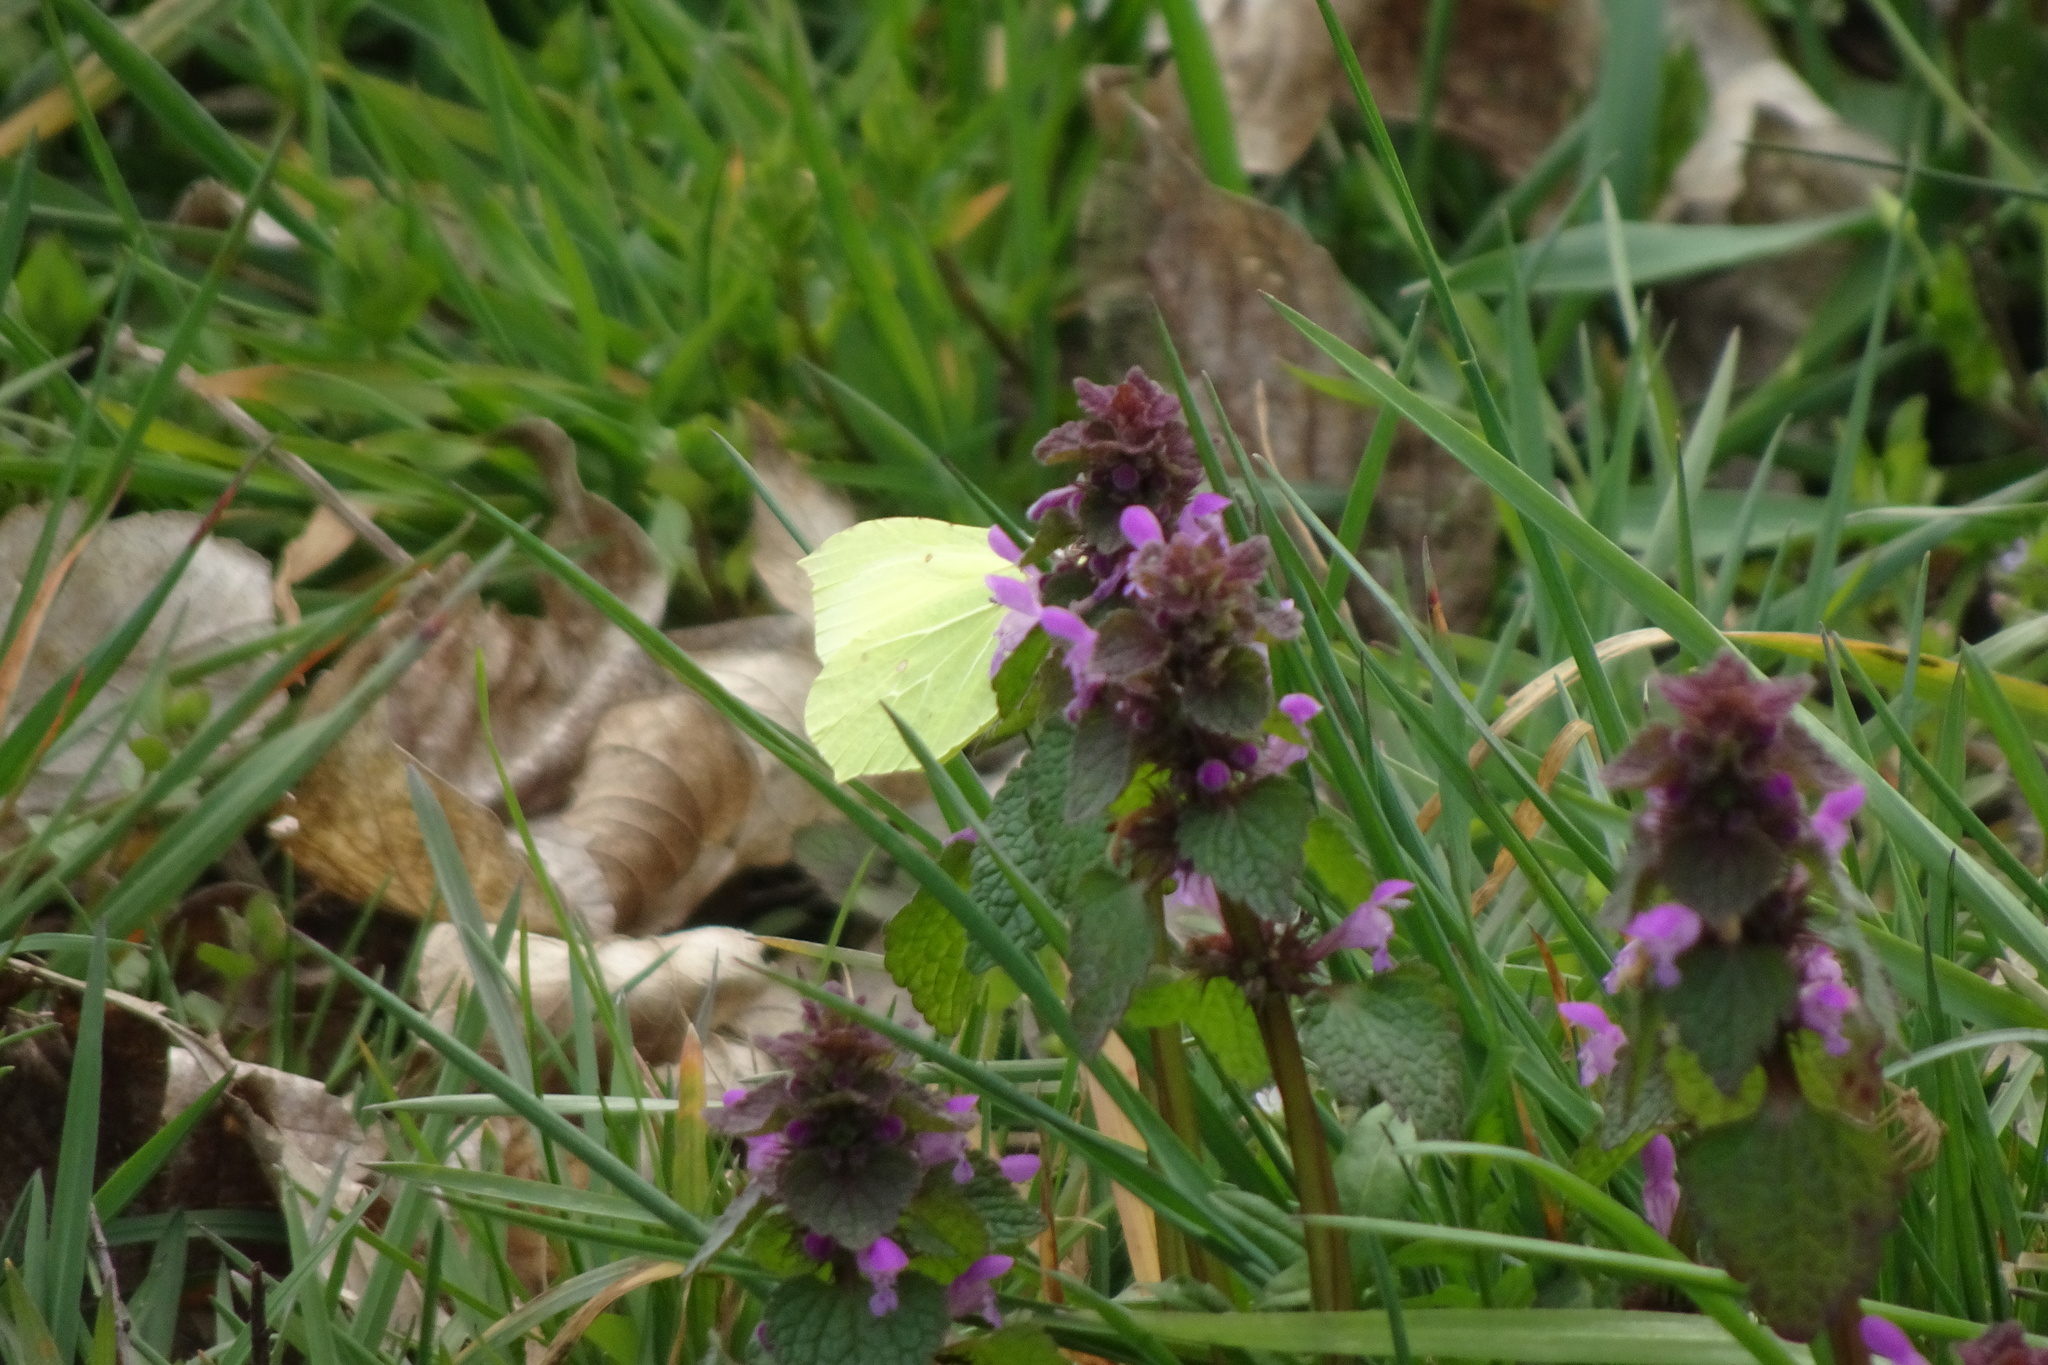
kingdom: Animalia
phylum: Arthropoda
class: Insecta
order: Lepidoptera
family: Pieridae
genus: Gonepteryx
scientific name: Gonepteryx rhamni
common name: Brimstone
